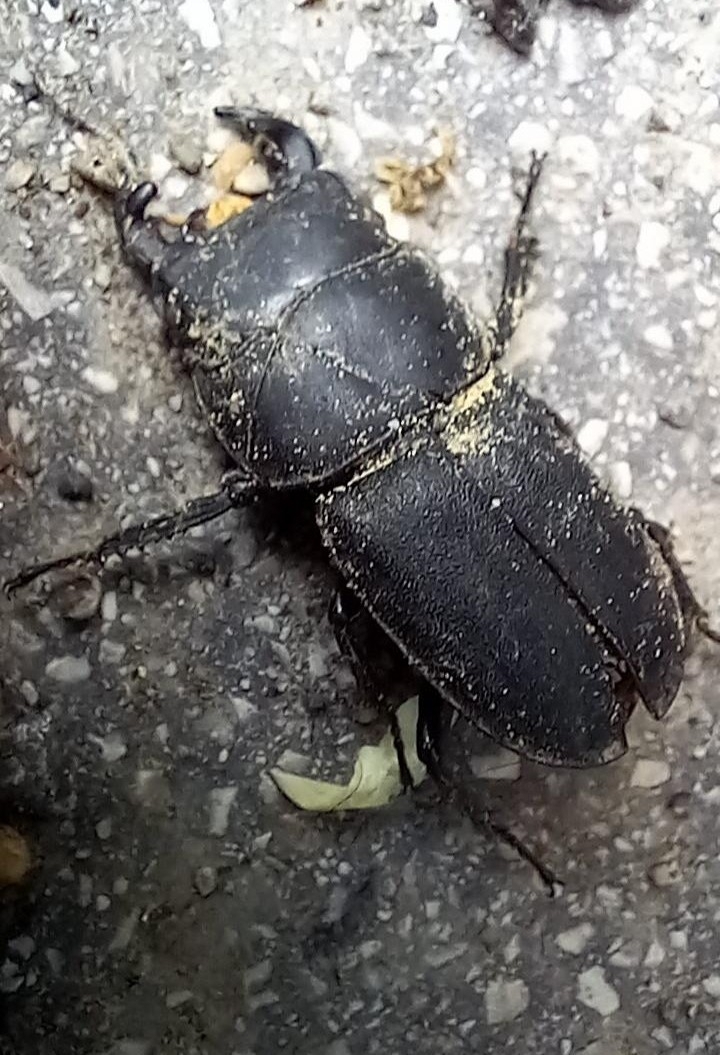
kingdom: Animalia
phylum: Arthropoda
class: Insecta
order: Coleoptera
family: Lucanidae
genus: Dorcus
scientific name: Dorcus parallelipipedus
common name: Lesser stag beetle
